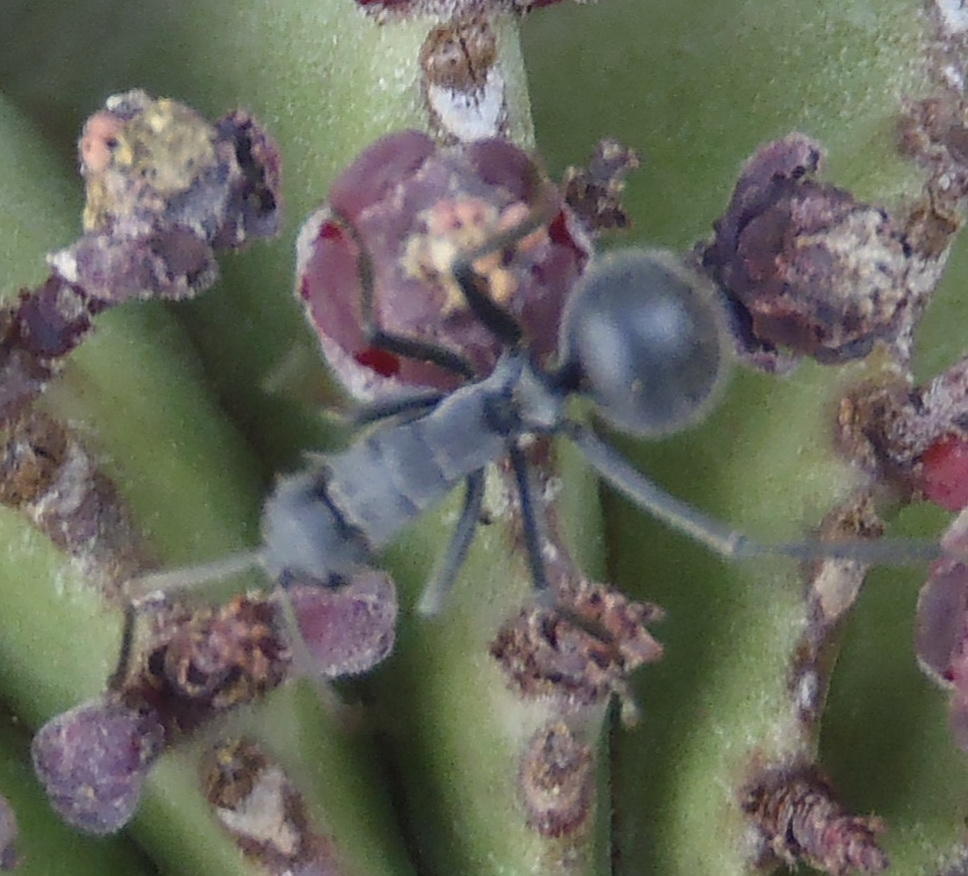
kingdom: Animalia
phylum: Arthropoda
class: Insecta
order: Hymenoptera
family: Formicidae
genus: Polyrhachis
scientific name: Polyrhachis schistacea
